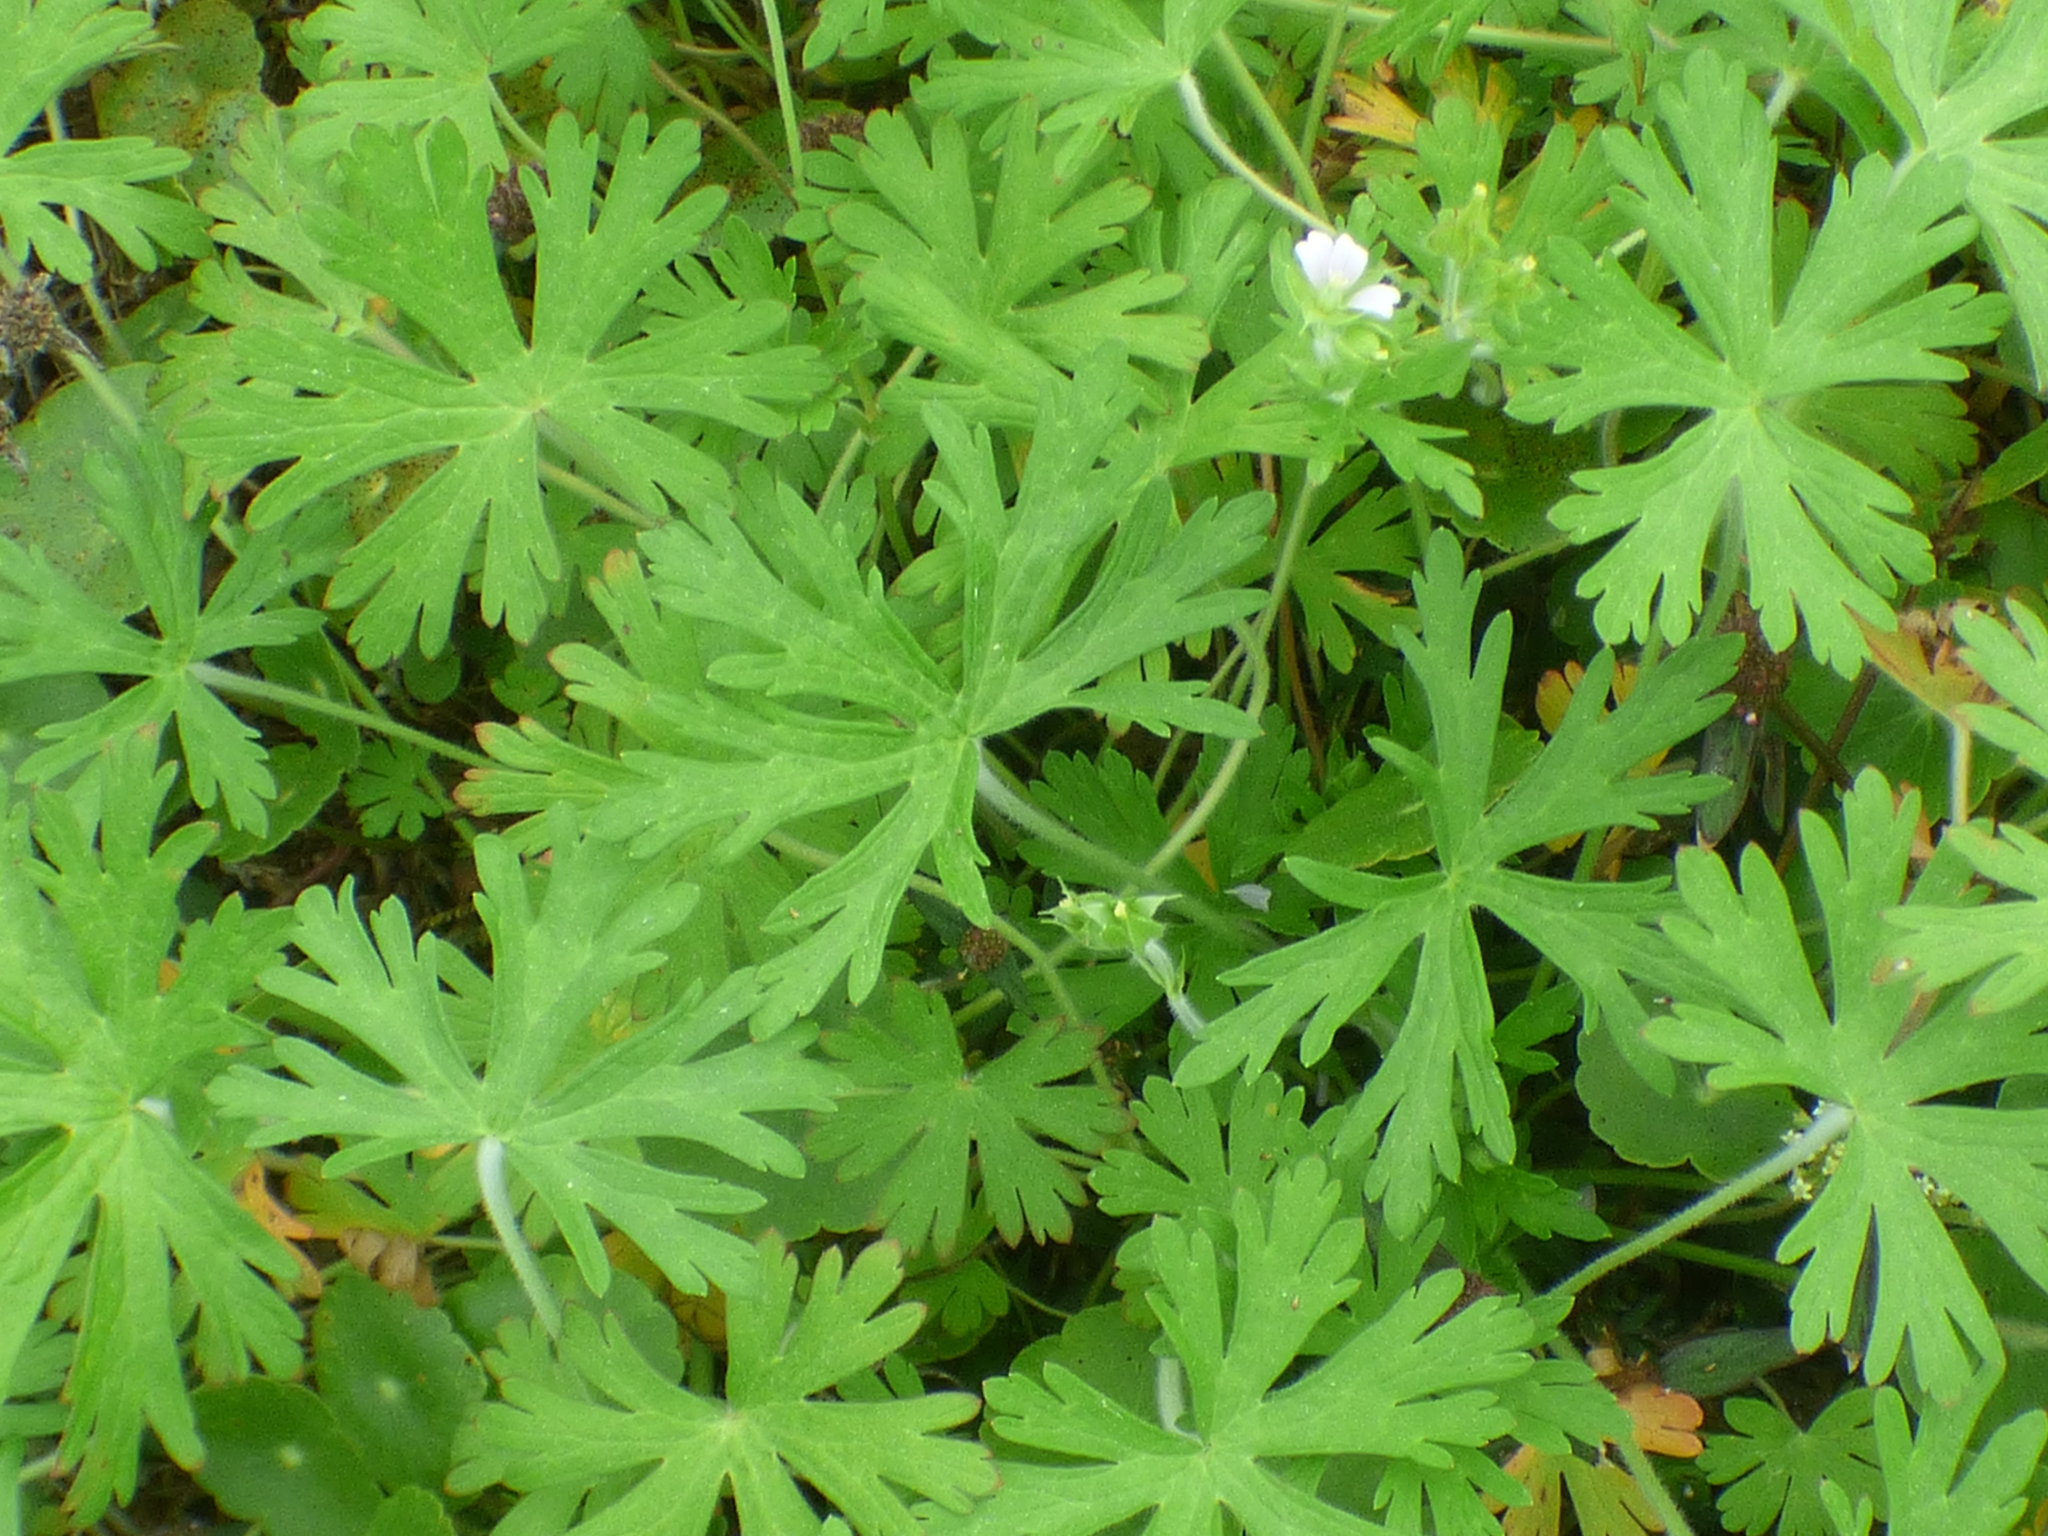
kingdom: Plantae
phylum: Tracheophyta
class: Magnoliopsida
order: Geraniales
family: Geraniaceae
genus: Geranium
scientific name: Geranium carolinianum
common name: Carolina crane's-bill
